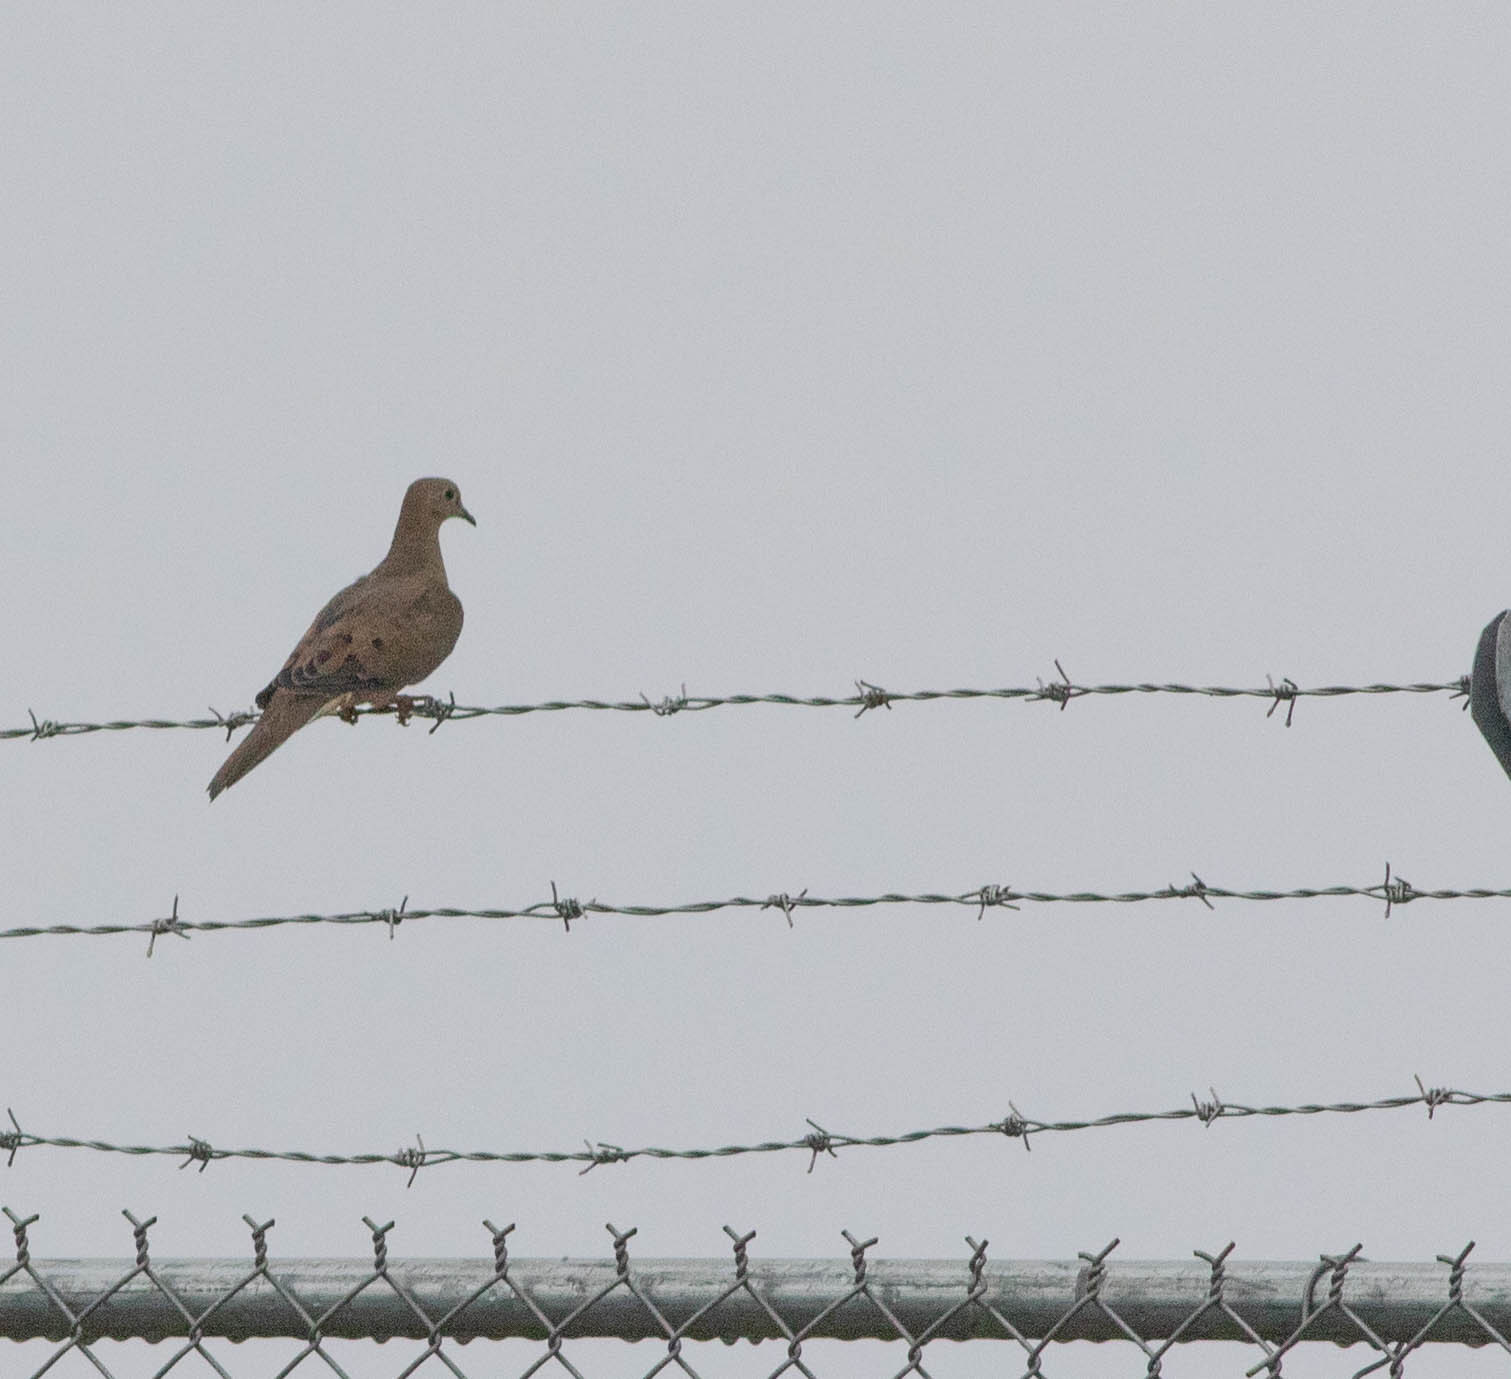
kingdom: Animalia
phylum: Chordata
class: Aves
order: Columbiformes
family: Columbidae
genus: Zenaida
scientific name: Zenaida macroura
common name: Mourning dove
